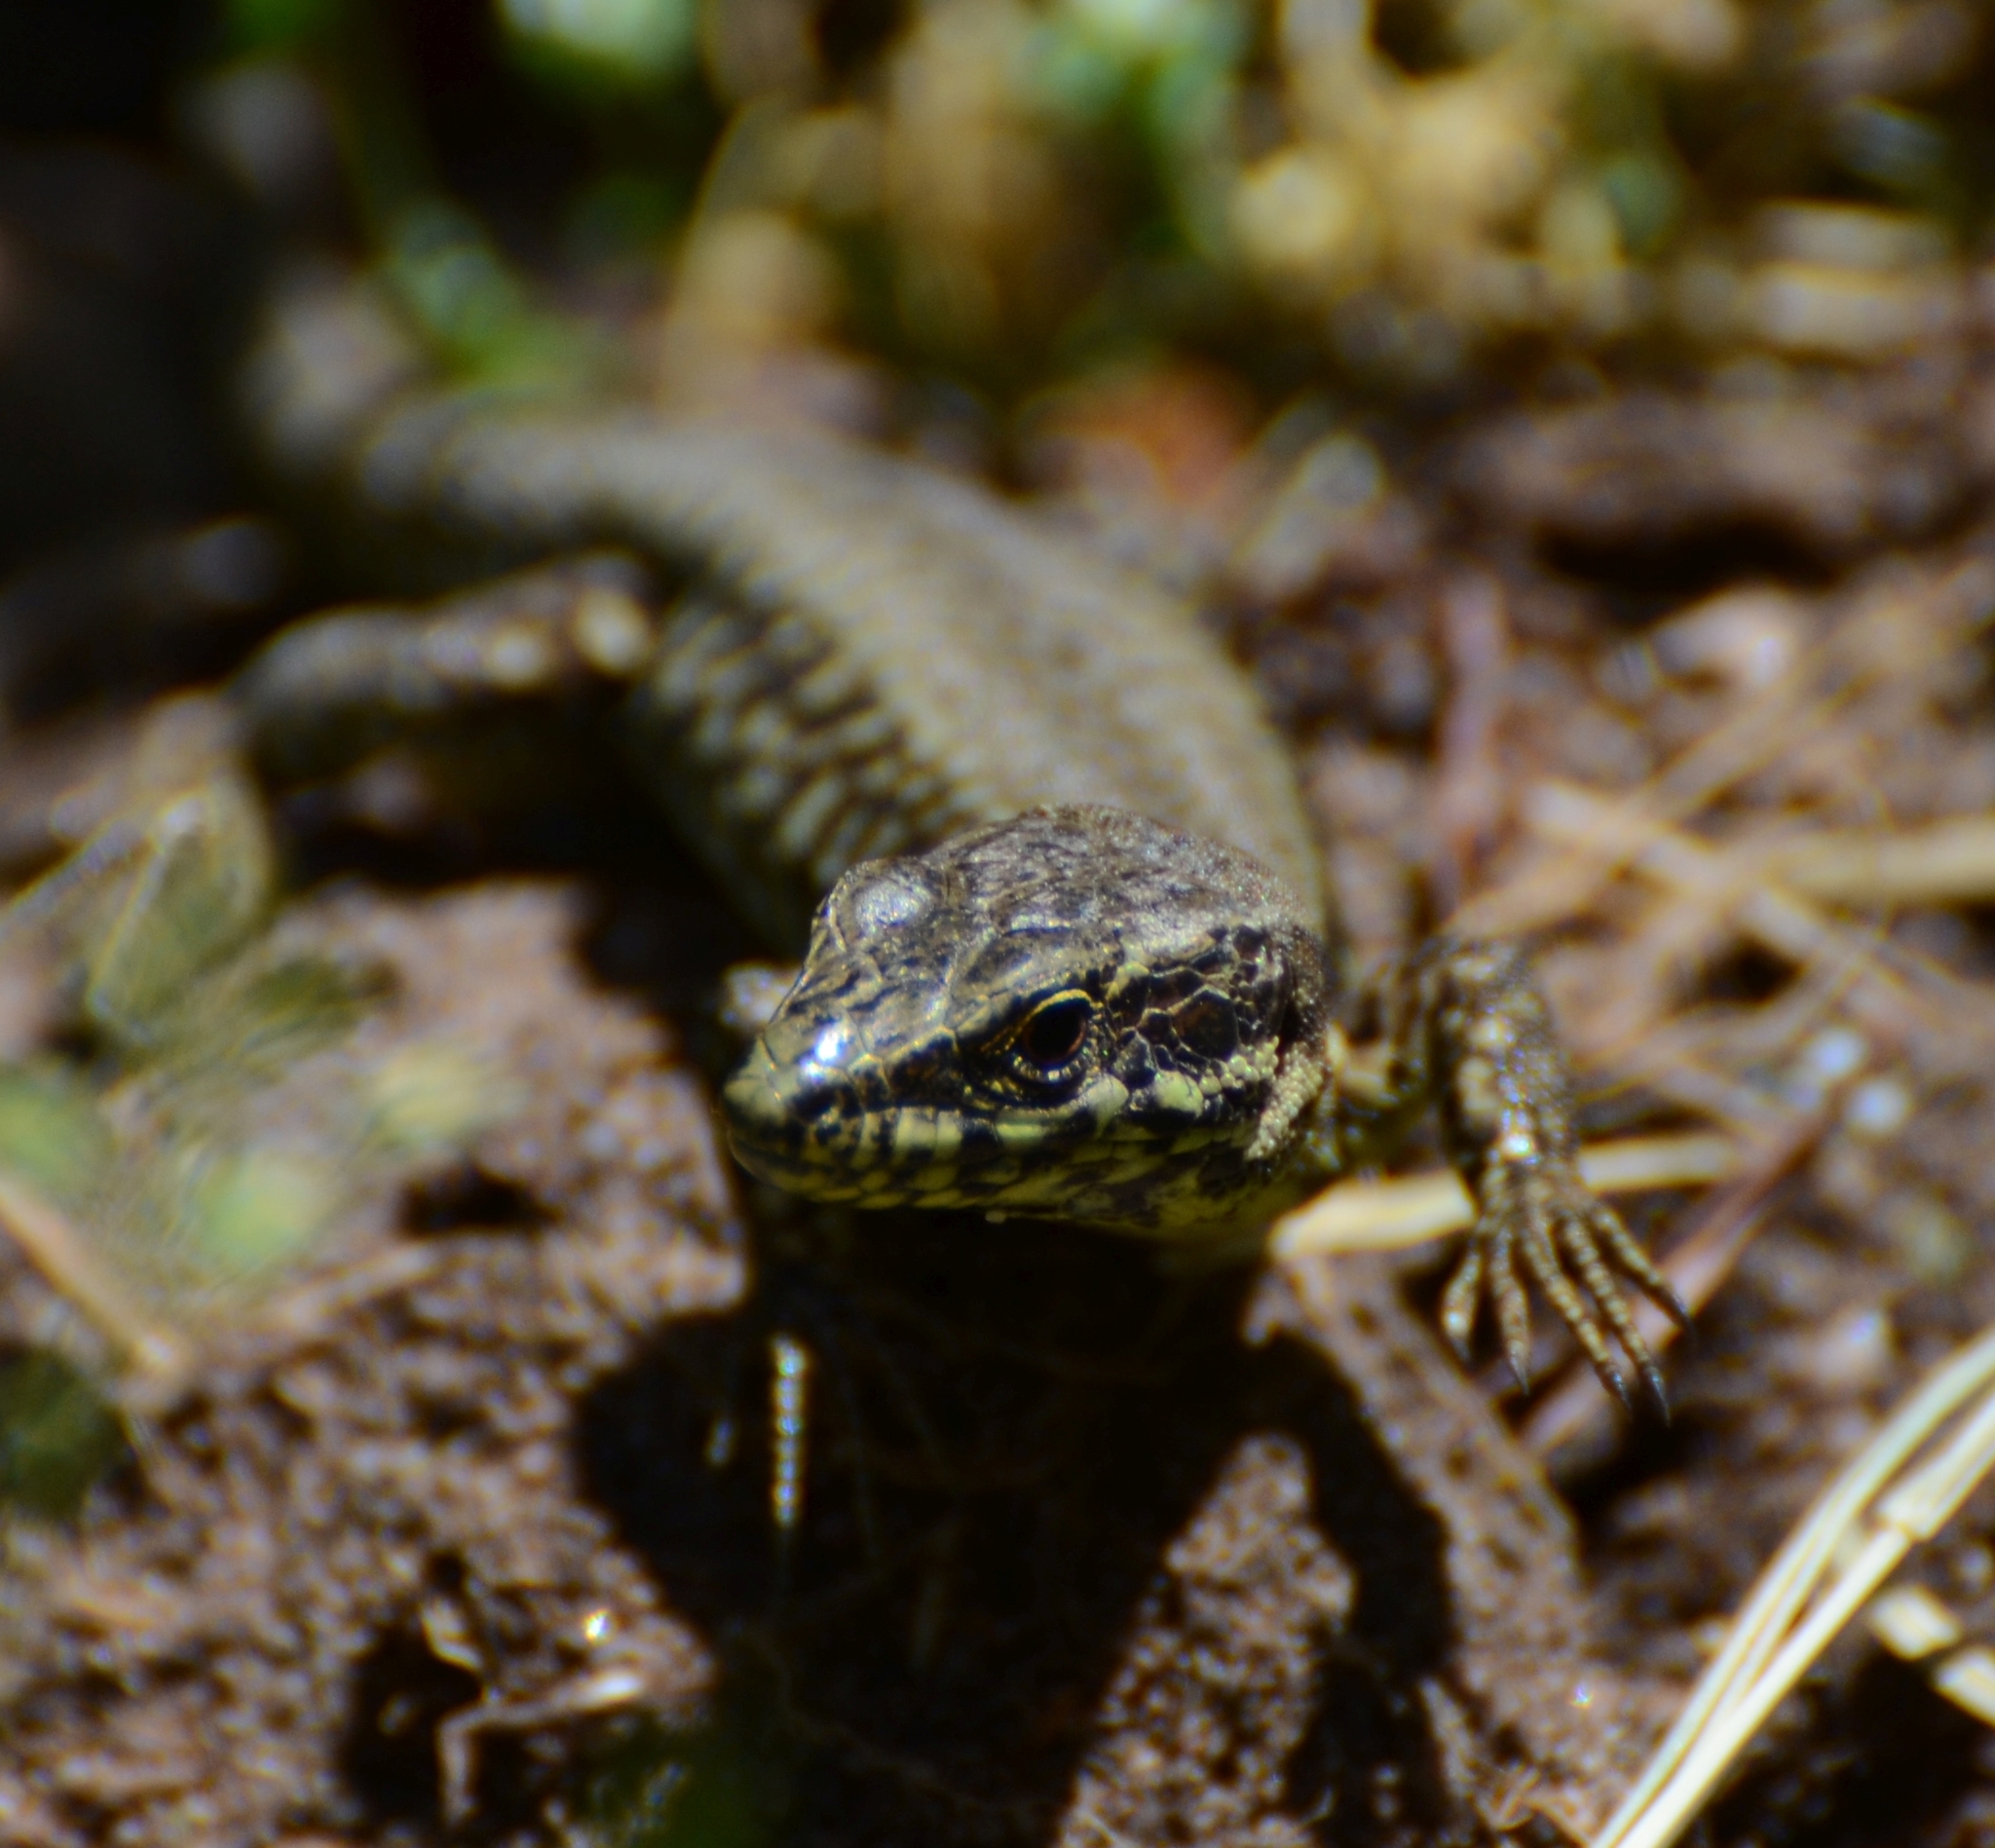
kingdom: Animalia
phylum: Chordata
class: Squamata
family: Lacertidae
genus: Podarcis
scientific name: Podarcis muralis
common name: Common wall lizard
